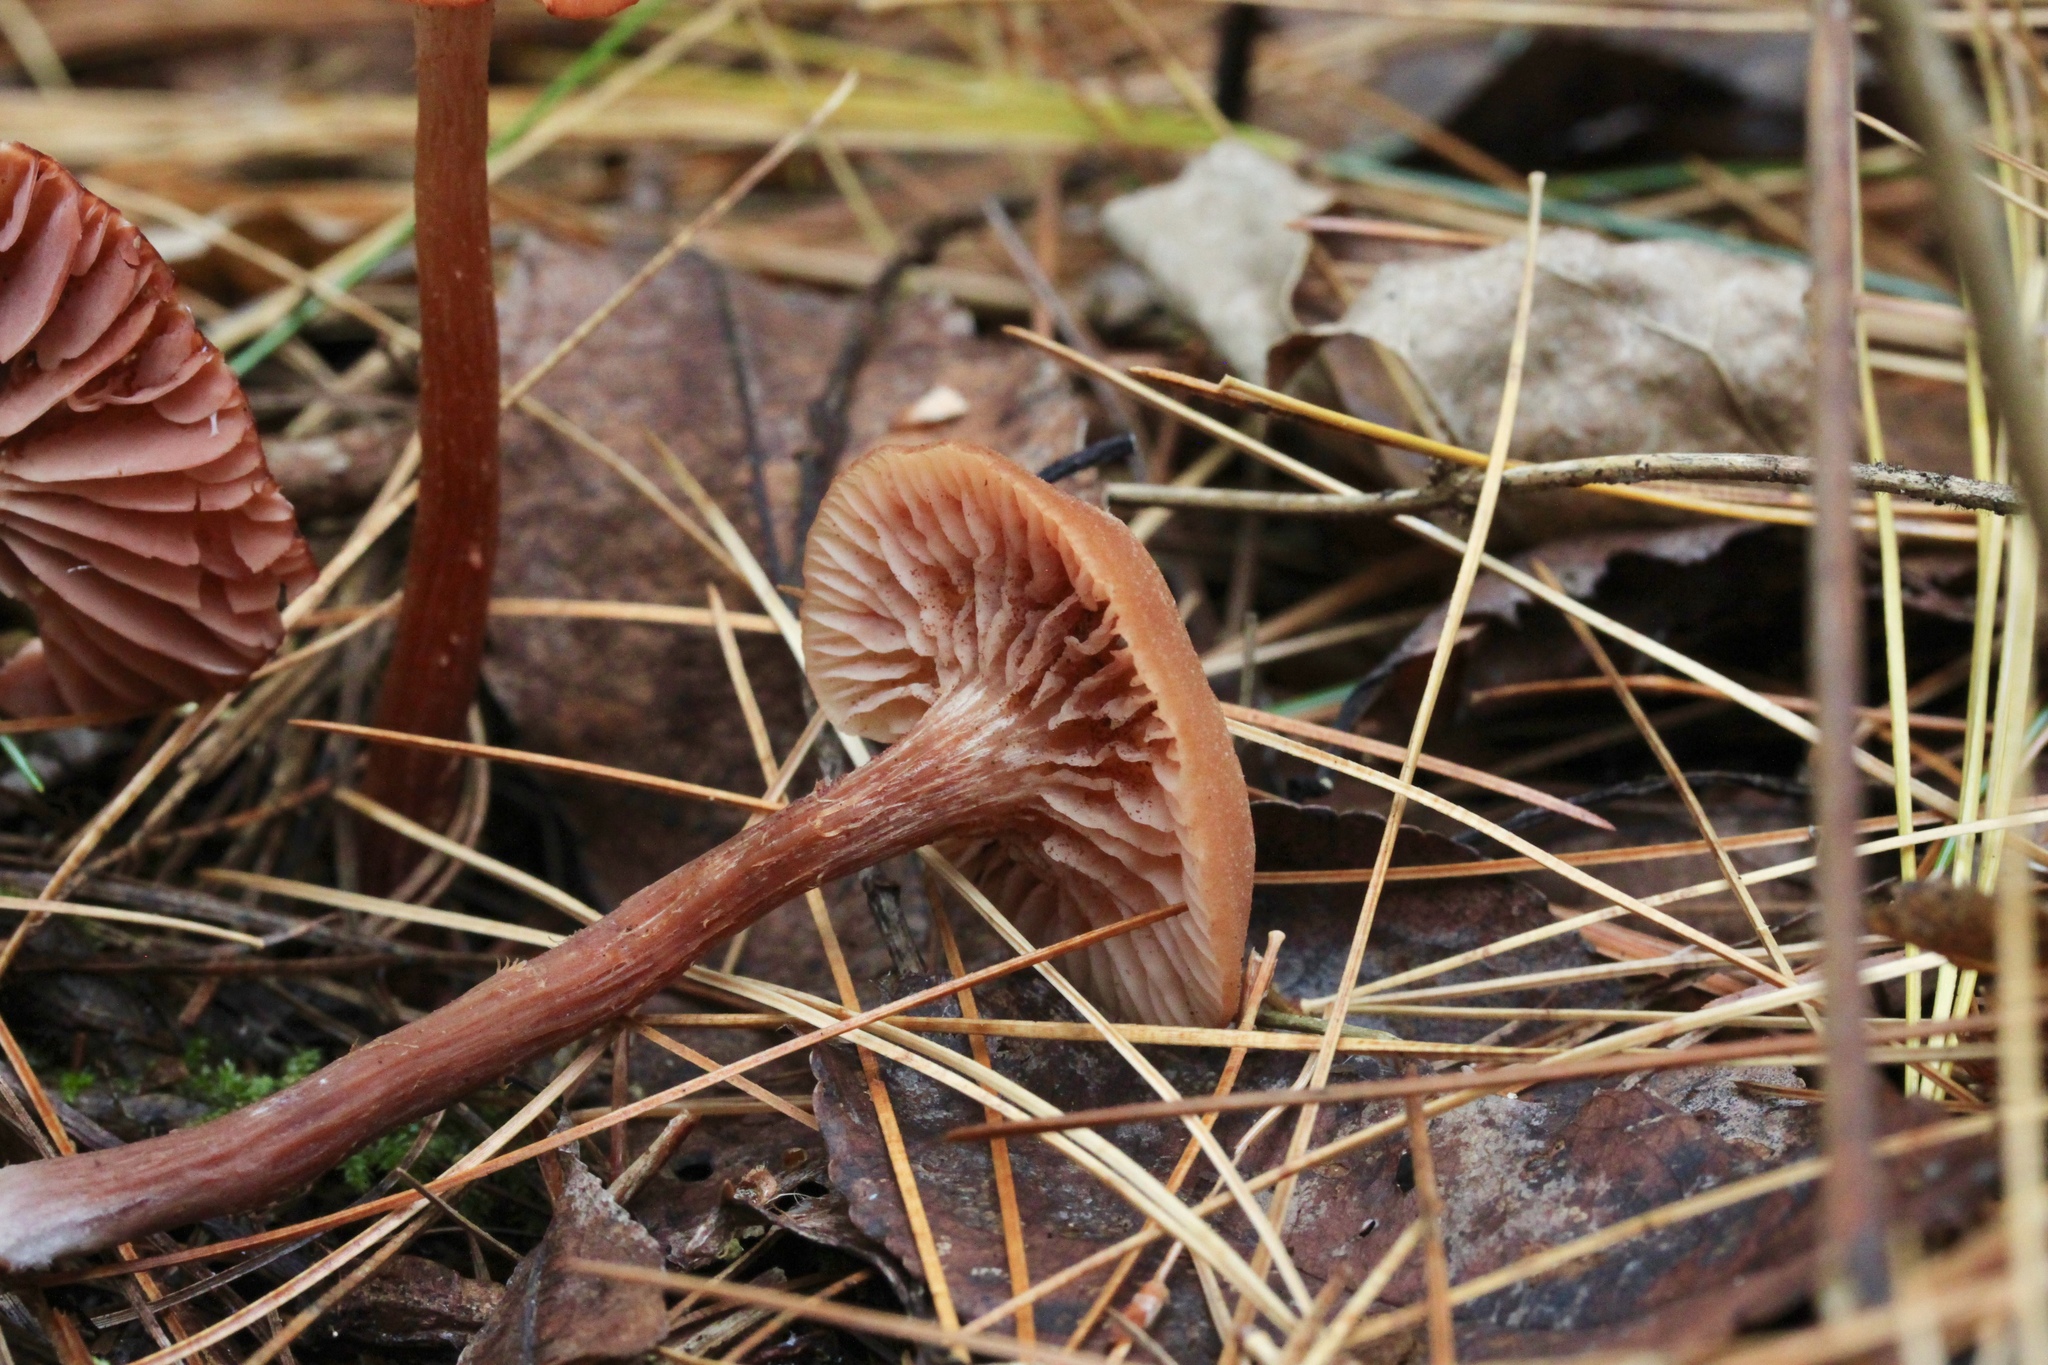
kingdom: Fungi
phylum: Basidiomycota
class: Agaricomycetes
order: Agaricales
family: Hydnangiaceae
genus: Laccaria
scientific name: Laccaria laccata
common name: Deceiver
